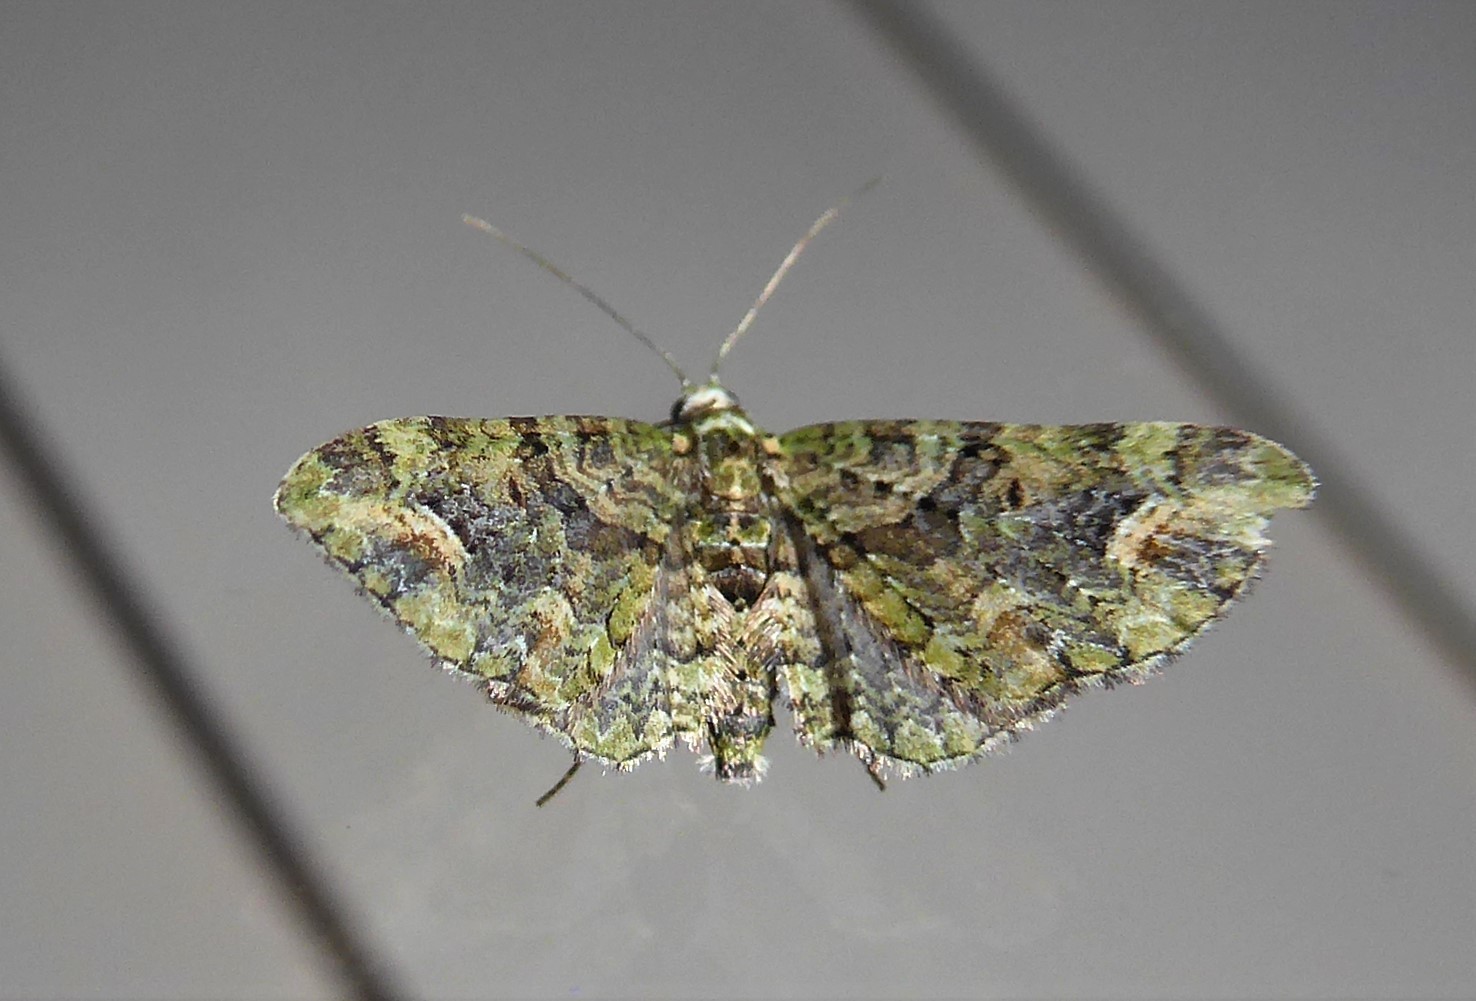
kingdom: Animalia
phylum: Arthropoda
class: Insecta
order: Lepidoptera
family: Geometridae
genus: Idaea
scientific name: Idaea mutanda
